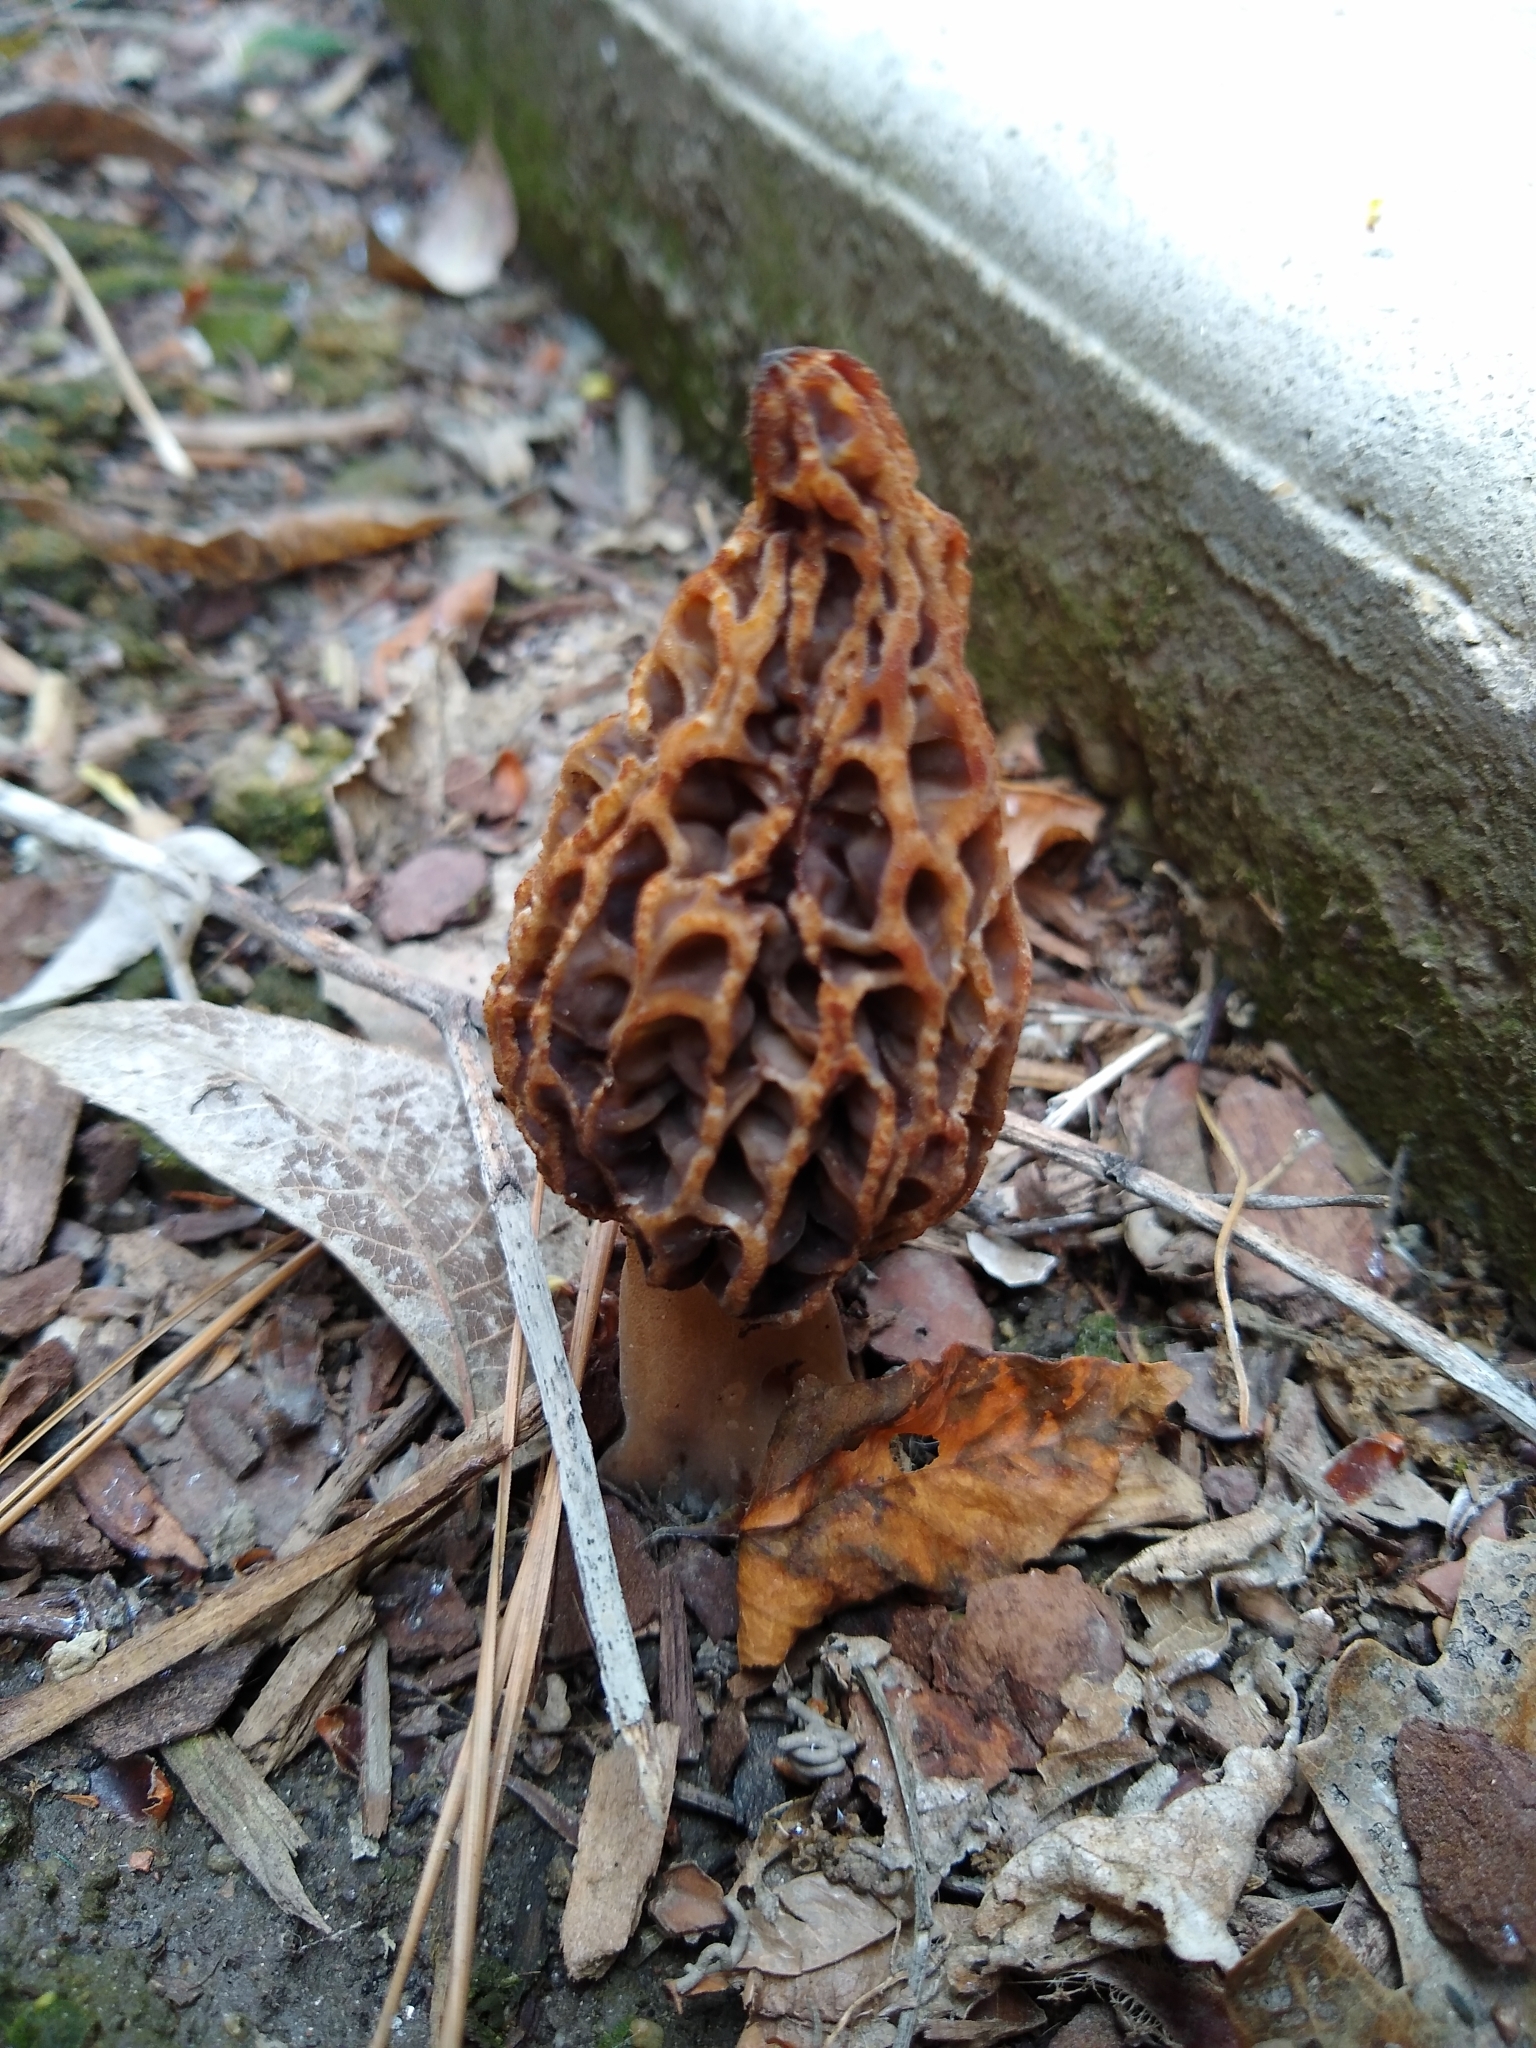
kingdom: Fungi
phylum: Ascomycota
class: Pezizomycetes
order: Pezizales
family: Morchellaceae
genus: Morchella
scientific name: Morchella rufobrunnea
